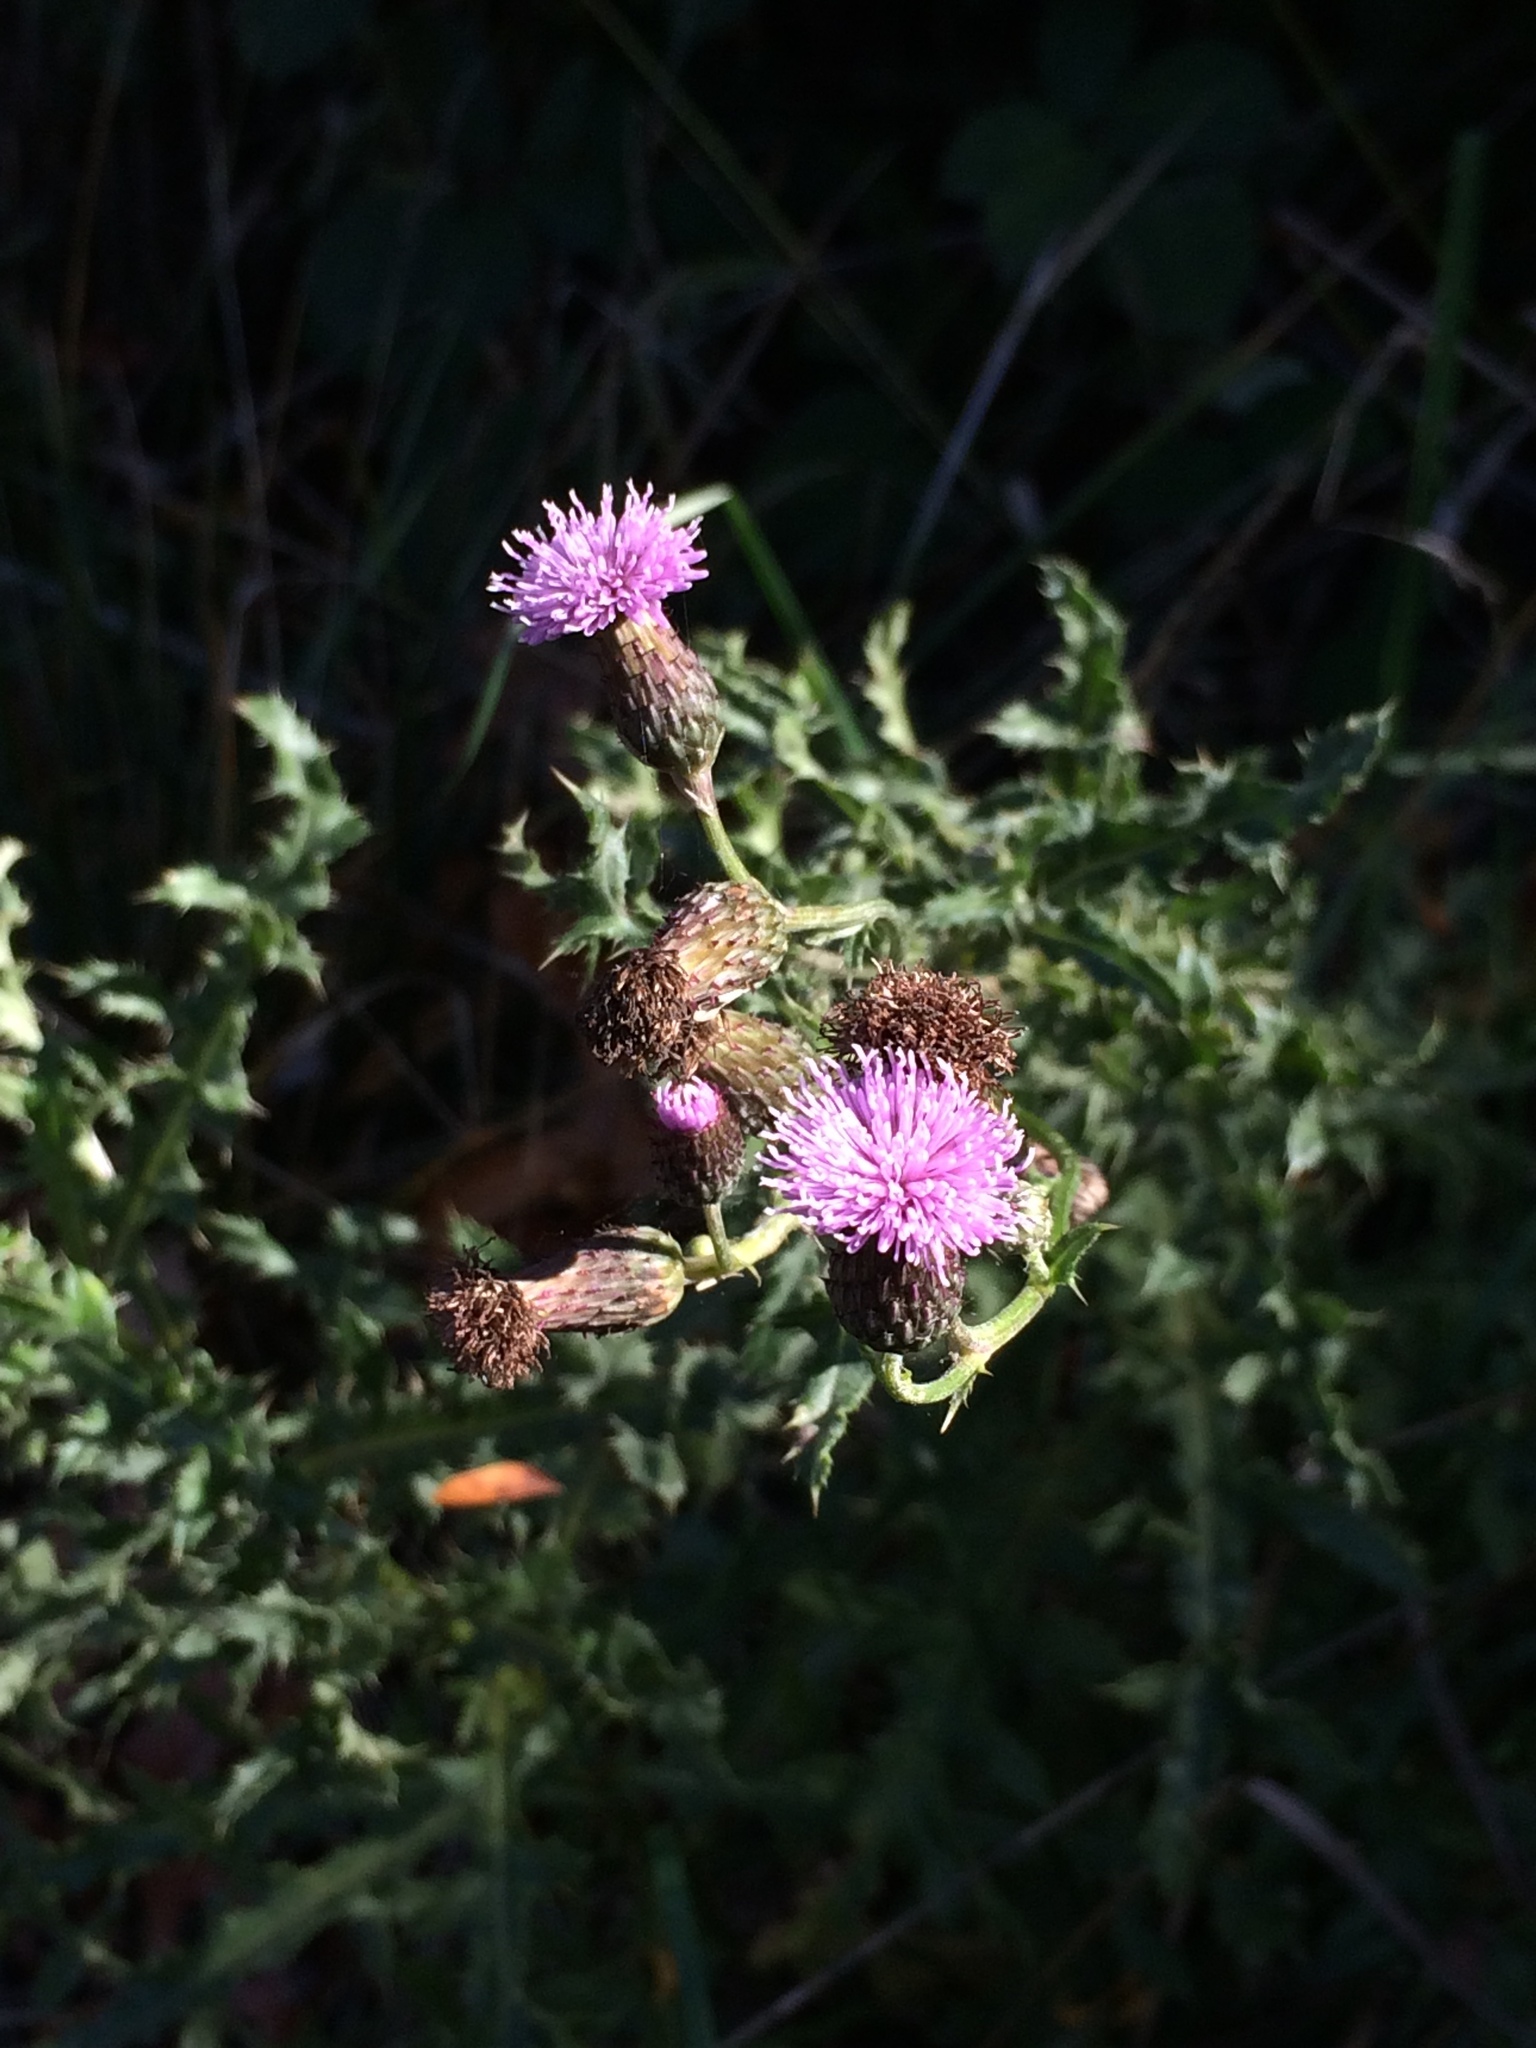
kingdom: Plantae
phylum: Tracheophyta
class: Magnoliopsida
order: Asterales
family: Asteraceae
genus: Cirsium
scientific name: Cirsium arvense
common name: Creeping thistle
